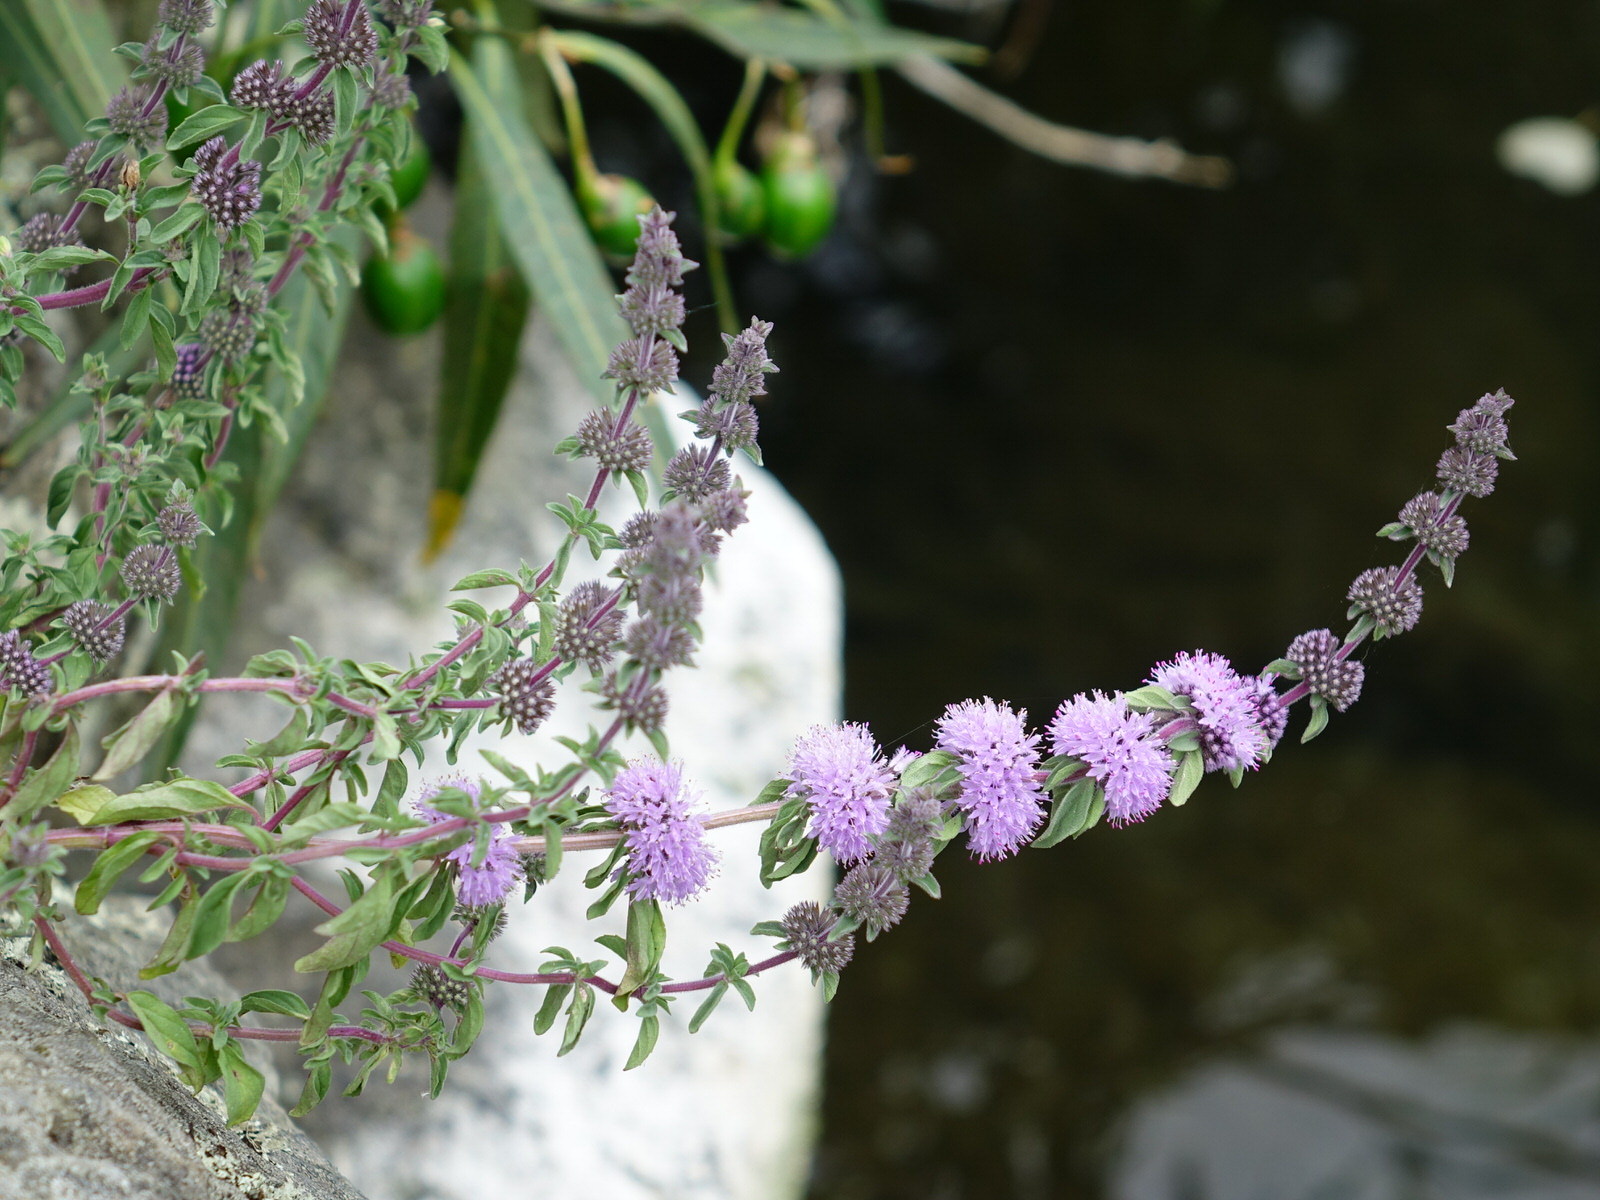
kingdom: Plantae
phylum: Tracheophyta
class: Magnoliopsida
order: Lamiales
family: Lamiaceae
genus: Mentha
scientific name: Mentha pulegium
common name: Pennyroyal
